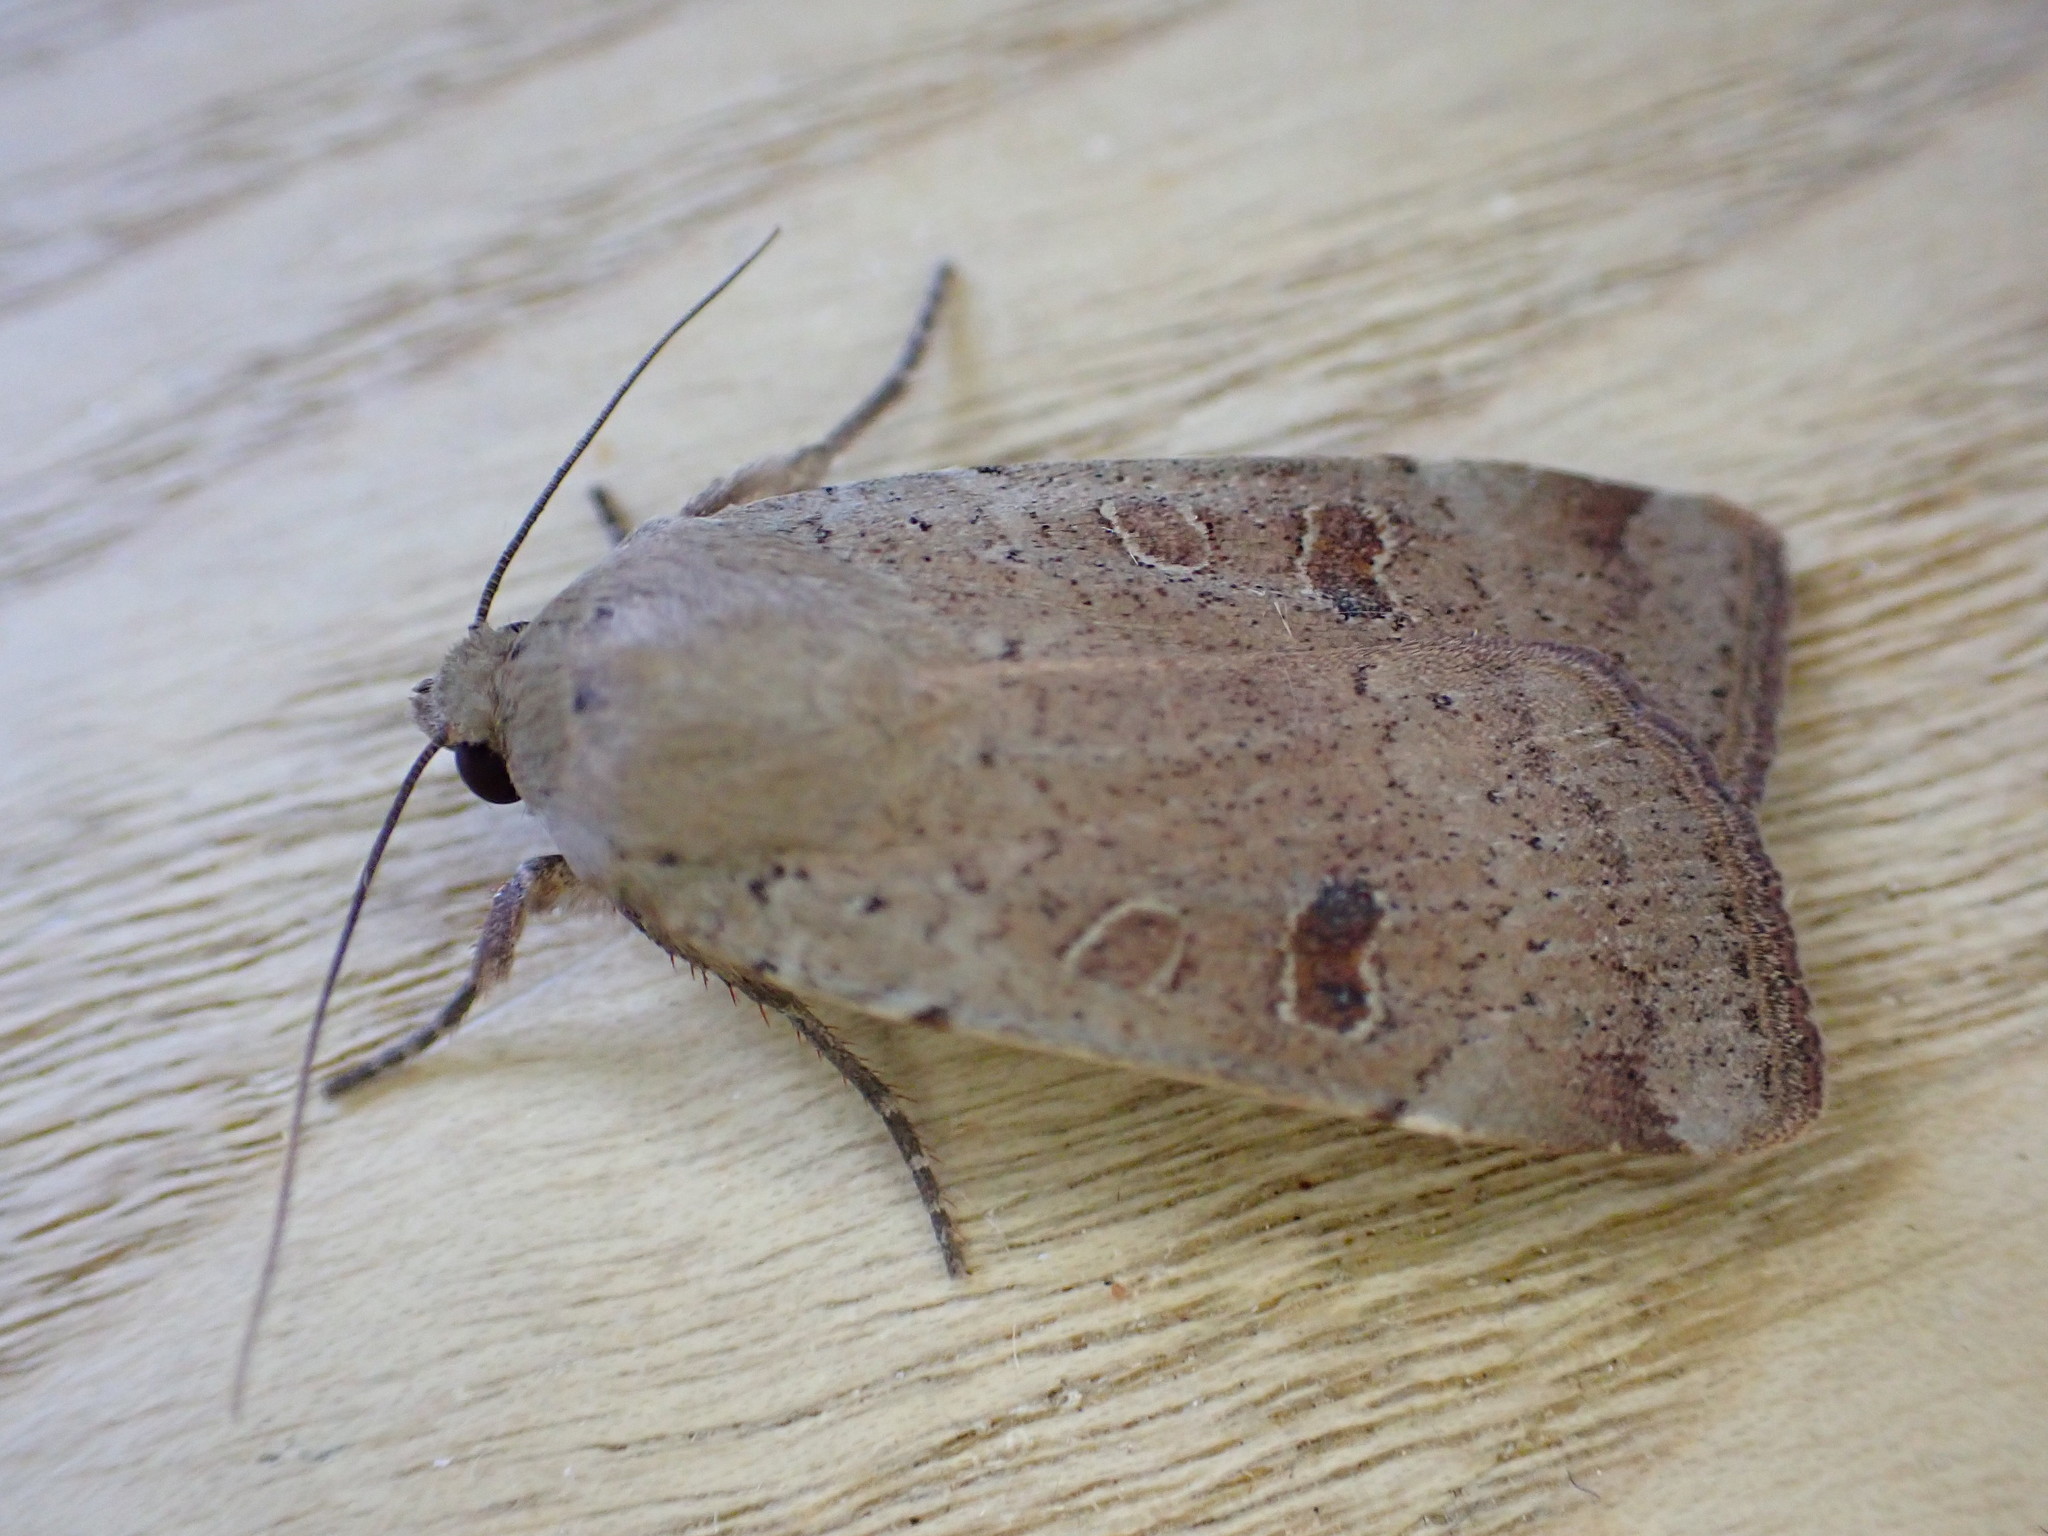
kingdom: Animalia
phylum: Arthropoda
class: Insecta
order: Lepidoptera
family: Noctuidae
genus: Noctua
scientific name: Noctua comes
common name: Lesser yellow underwing
